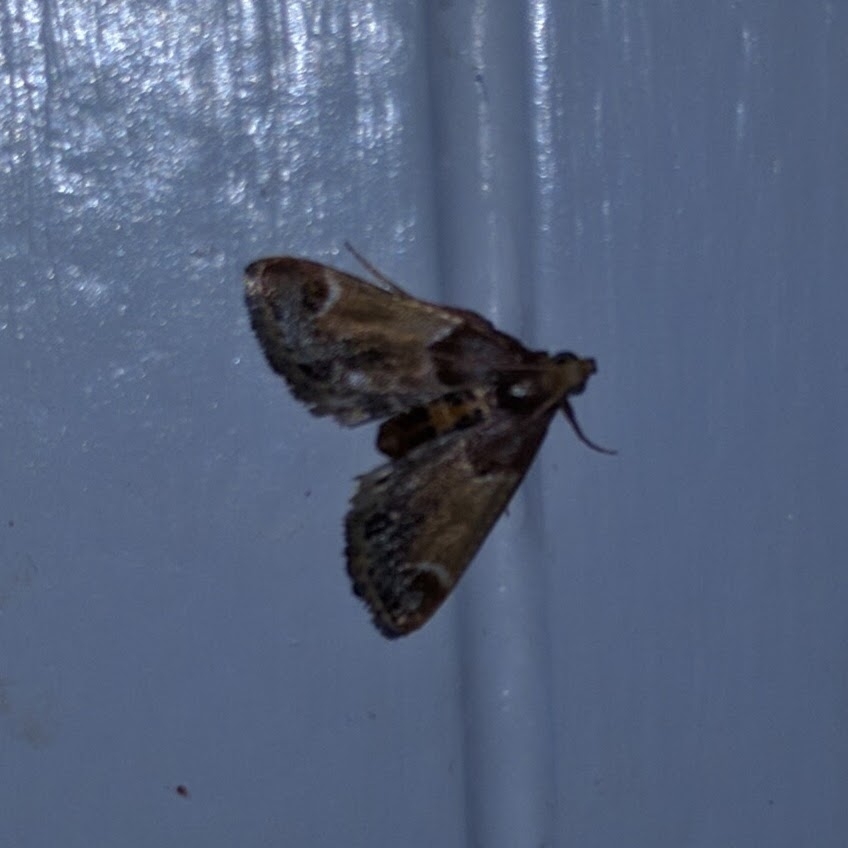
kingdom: Animalia
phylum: Arthropoda
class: Insecta
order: Lepidoptera
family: Pyralidae
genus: Pyralis
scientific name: Pyralis farinalis
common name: Meal moth
